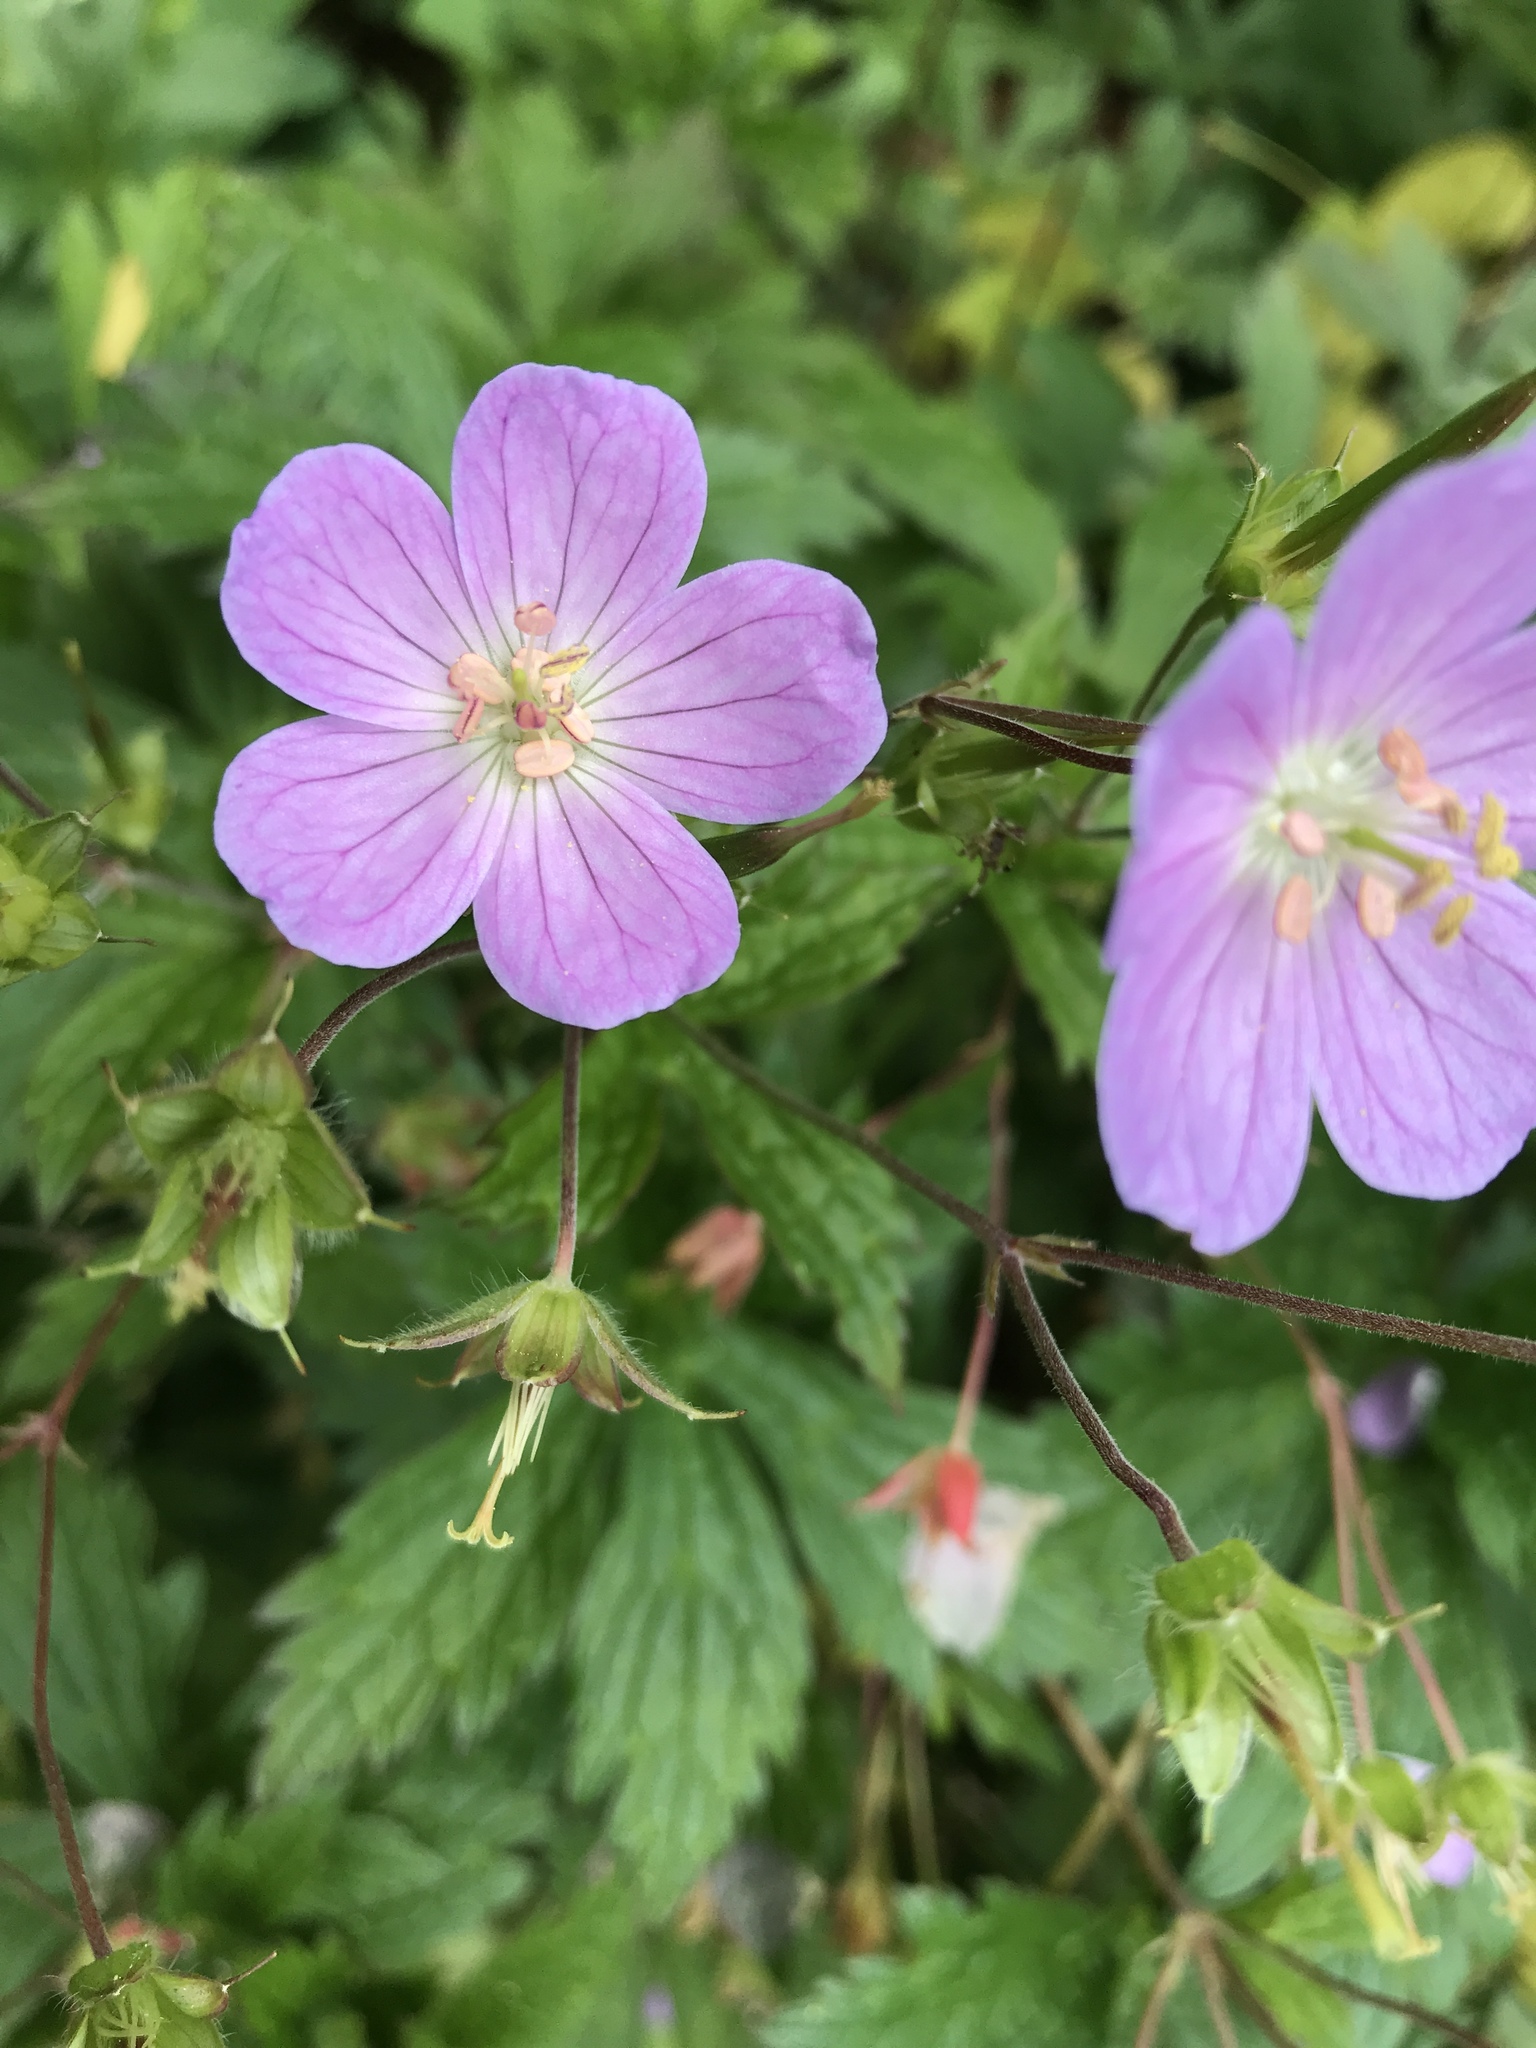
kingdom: Plantae
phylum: Tracheophyta
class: Magnoliopsida
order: Geraniales
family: Geraniaceae
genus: Geranium
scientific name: Geranium maculatum
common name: Spotted geranium
